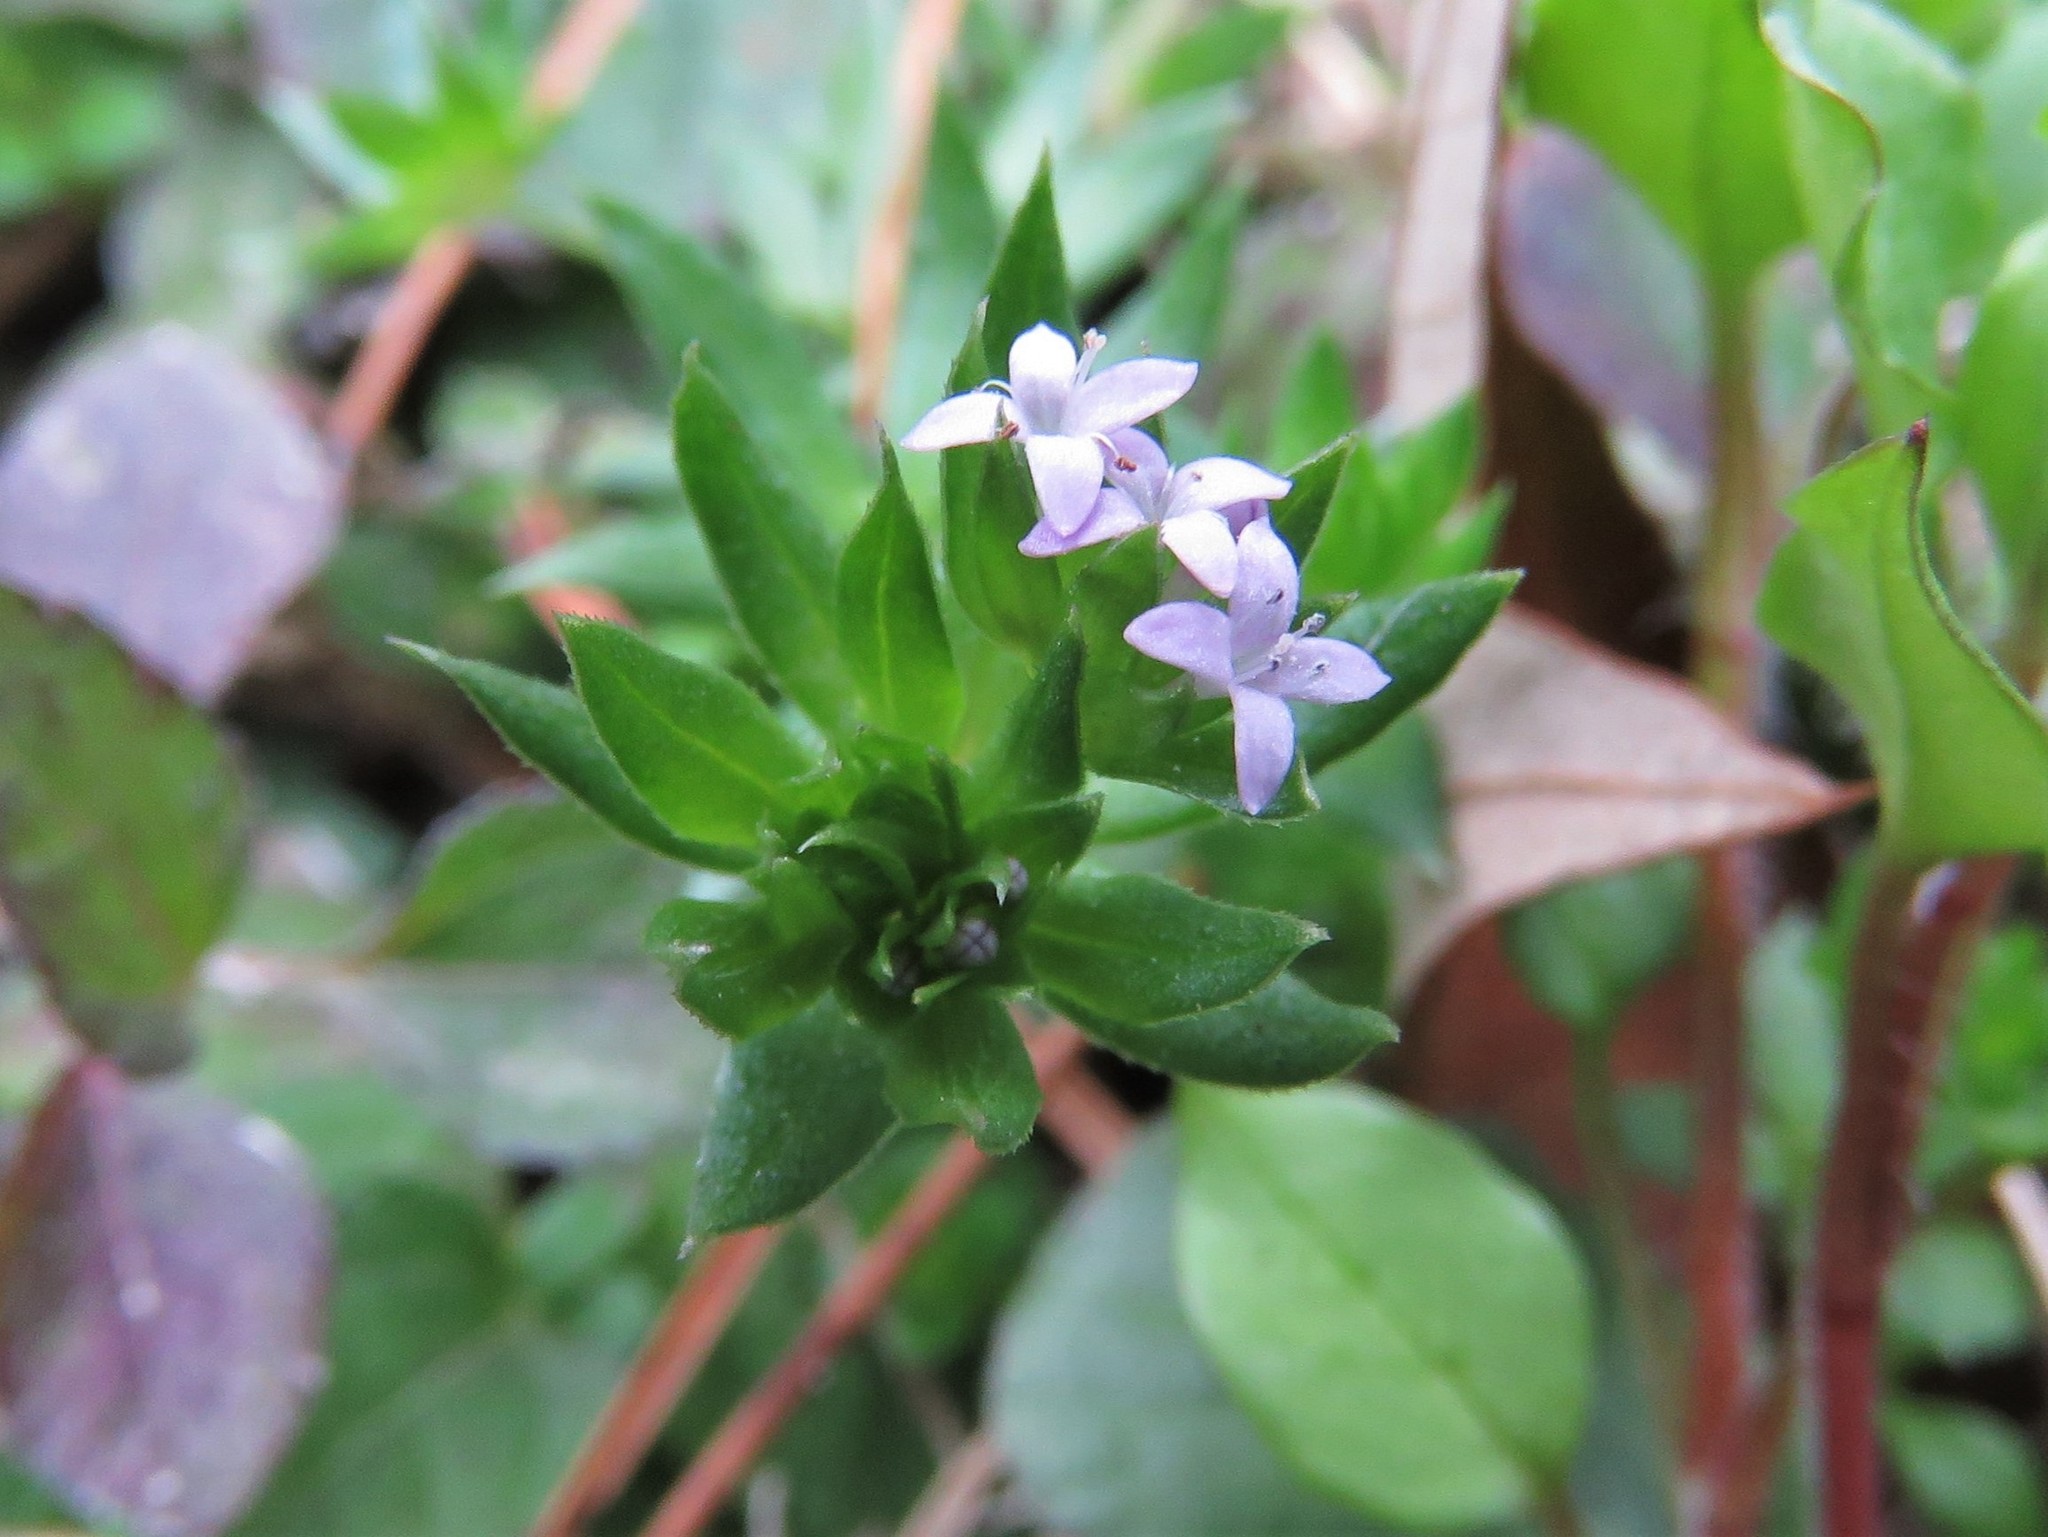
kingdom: Plantae
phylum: Tracheophyta
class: Magnoliopsida
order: Gentianales
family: Rubiaceae
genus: Sherardia
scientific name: Sherardia arvensis
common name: Field madder
